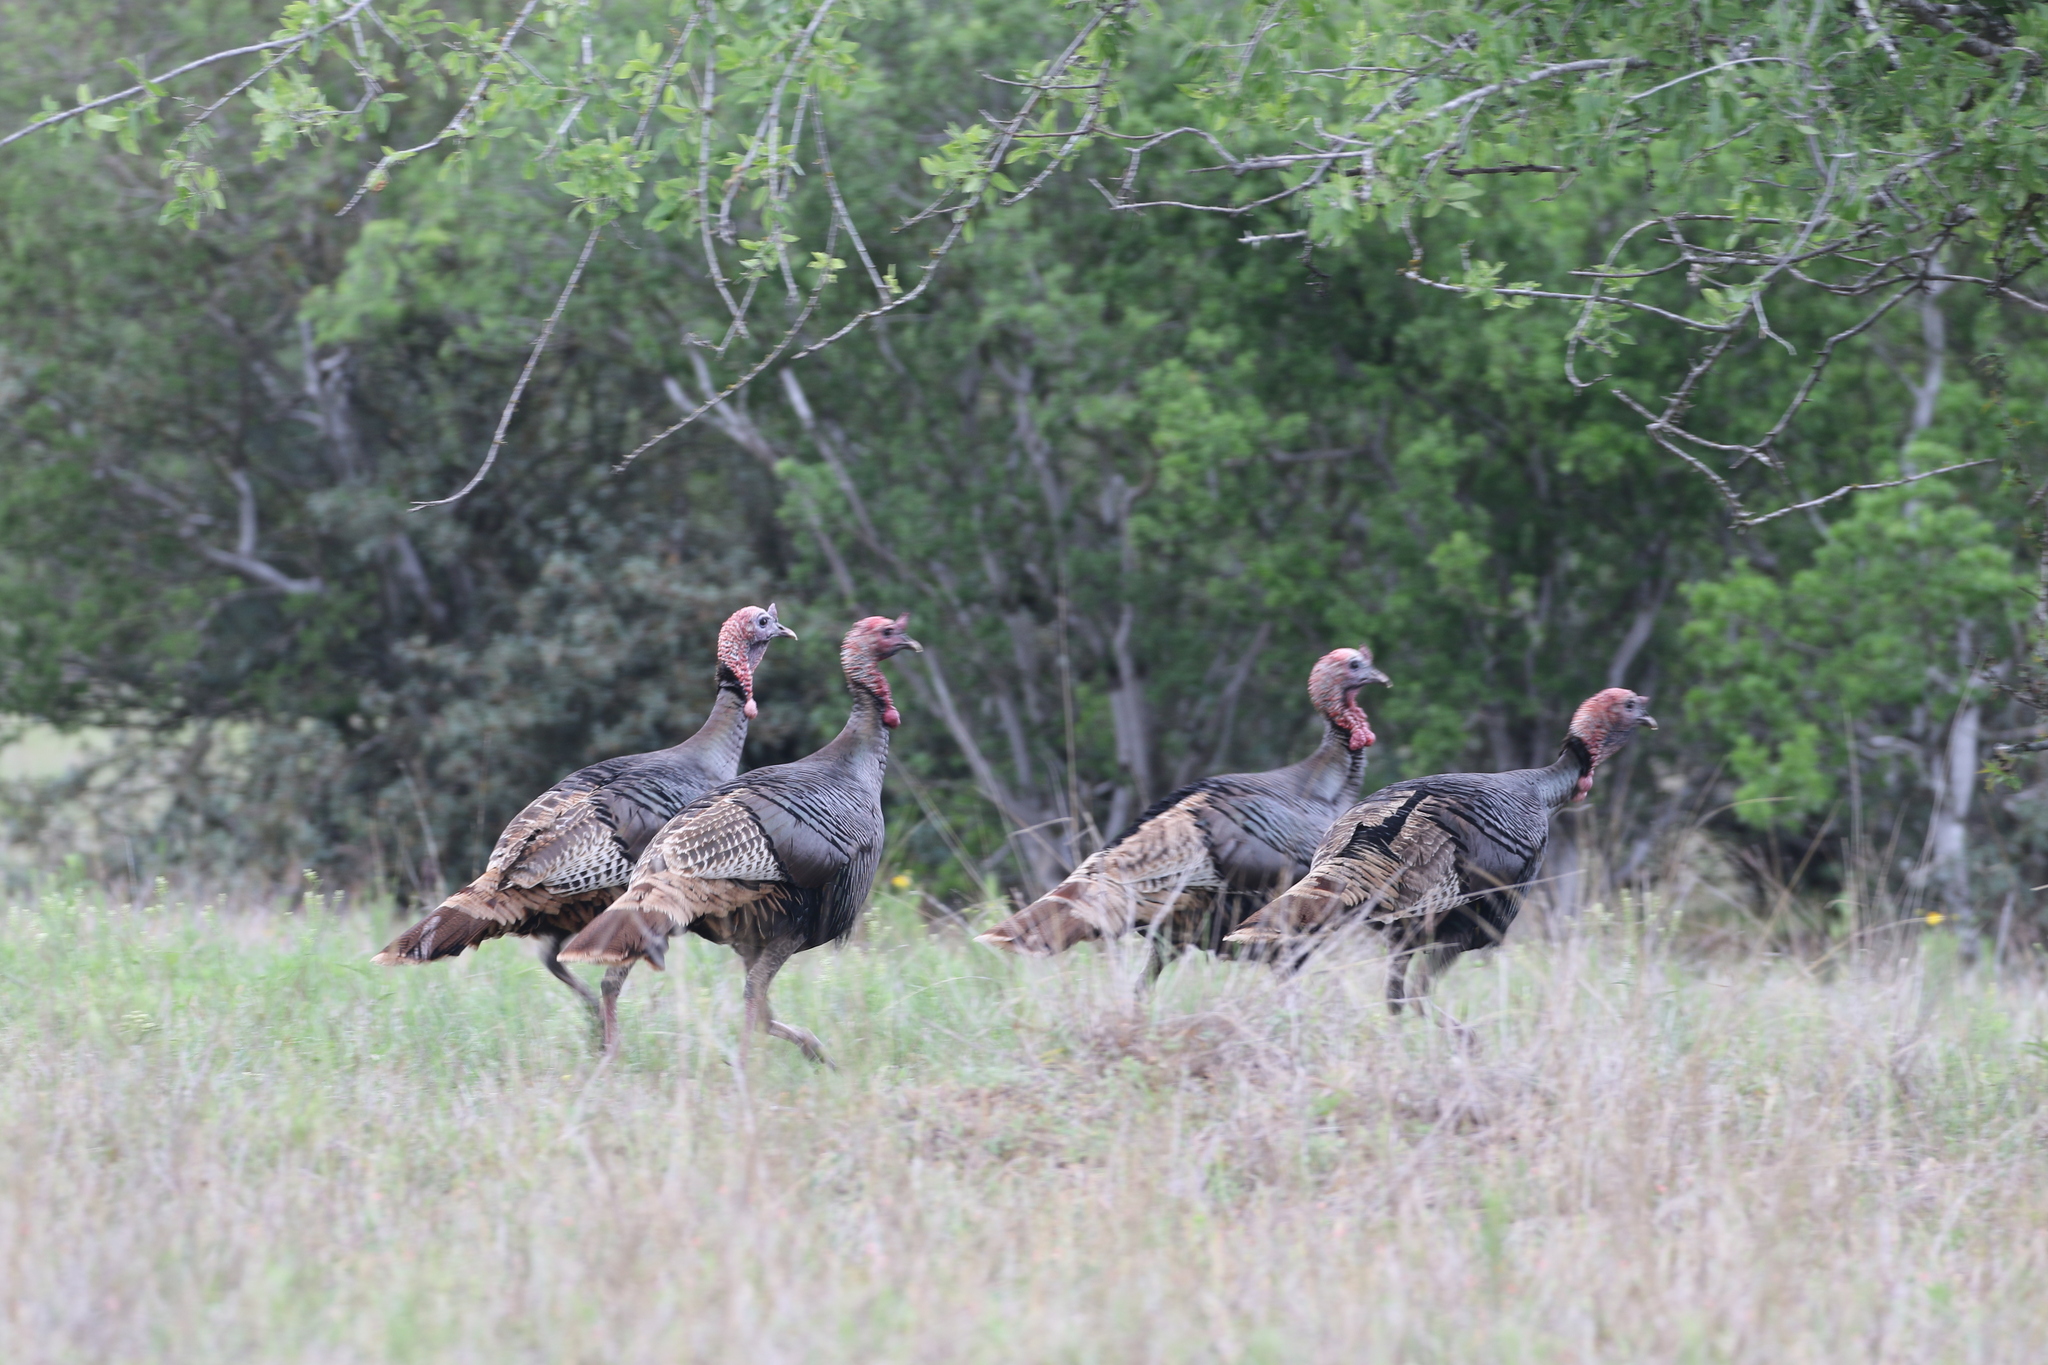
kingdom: Animalia
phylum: Chordata
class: Aves
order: Galliformes
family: Phasianidae
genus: Meleagris
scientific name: Meleagris gallopavo
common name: Wild turkey
